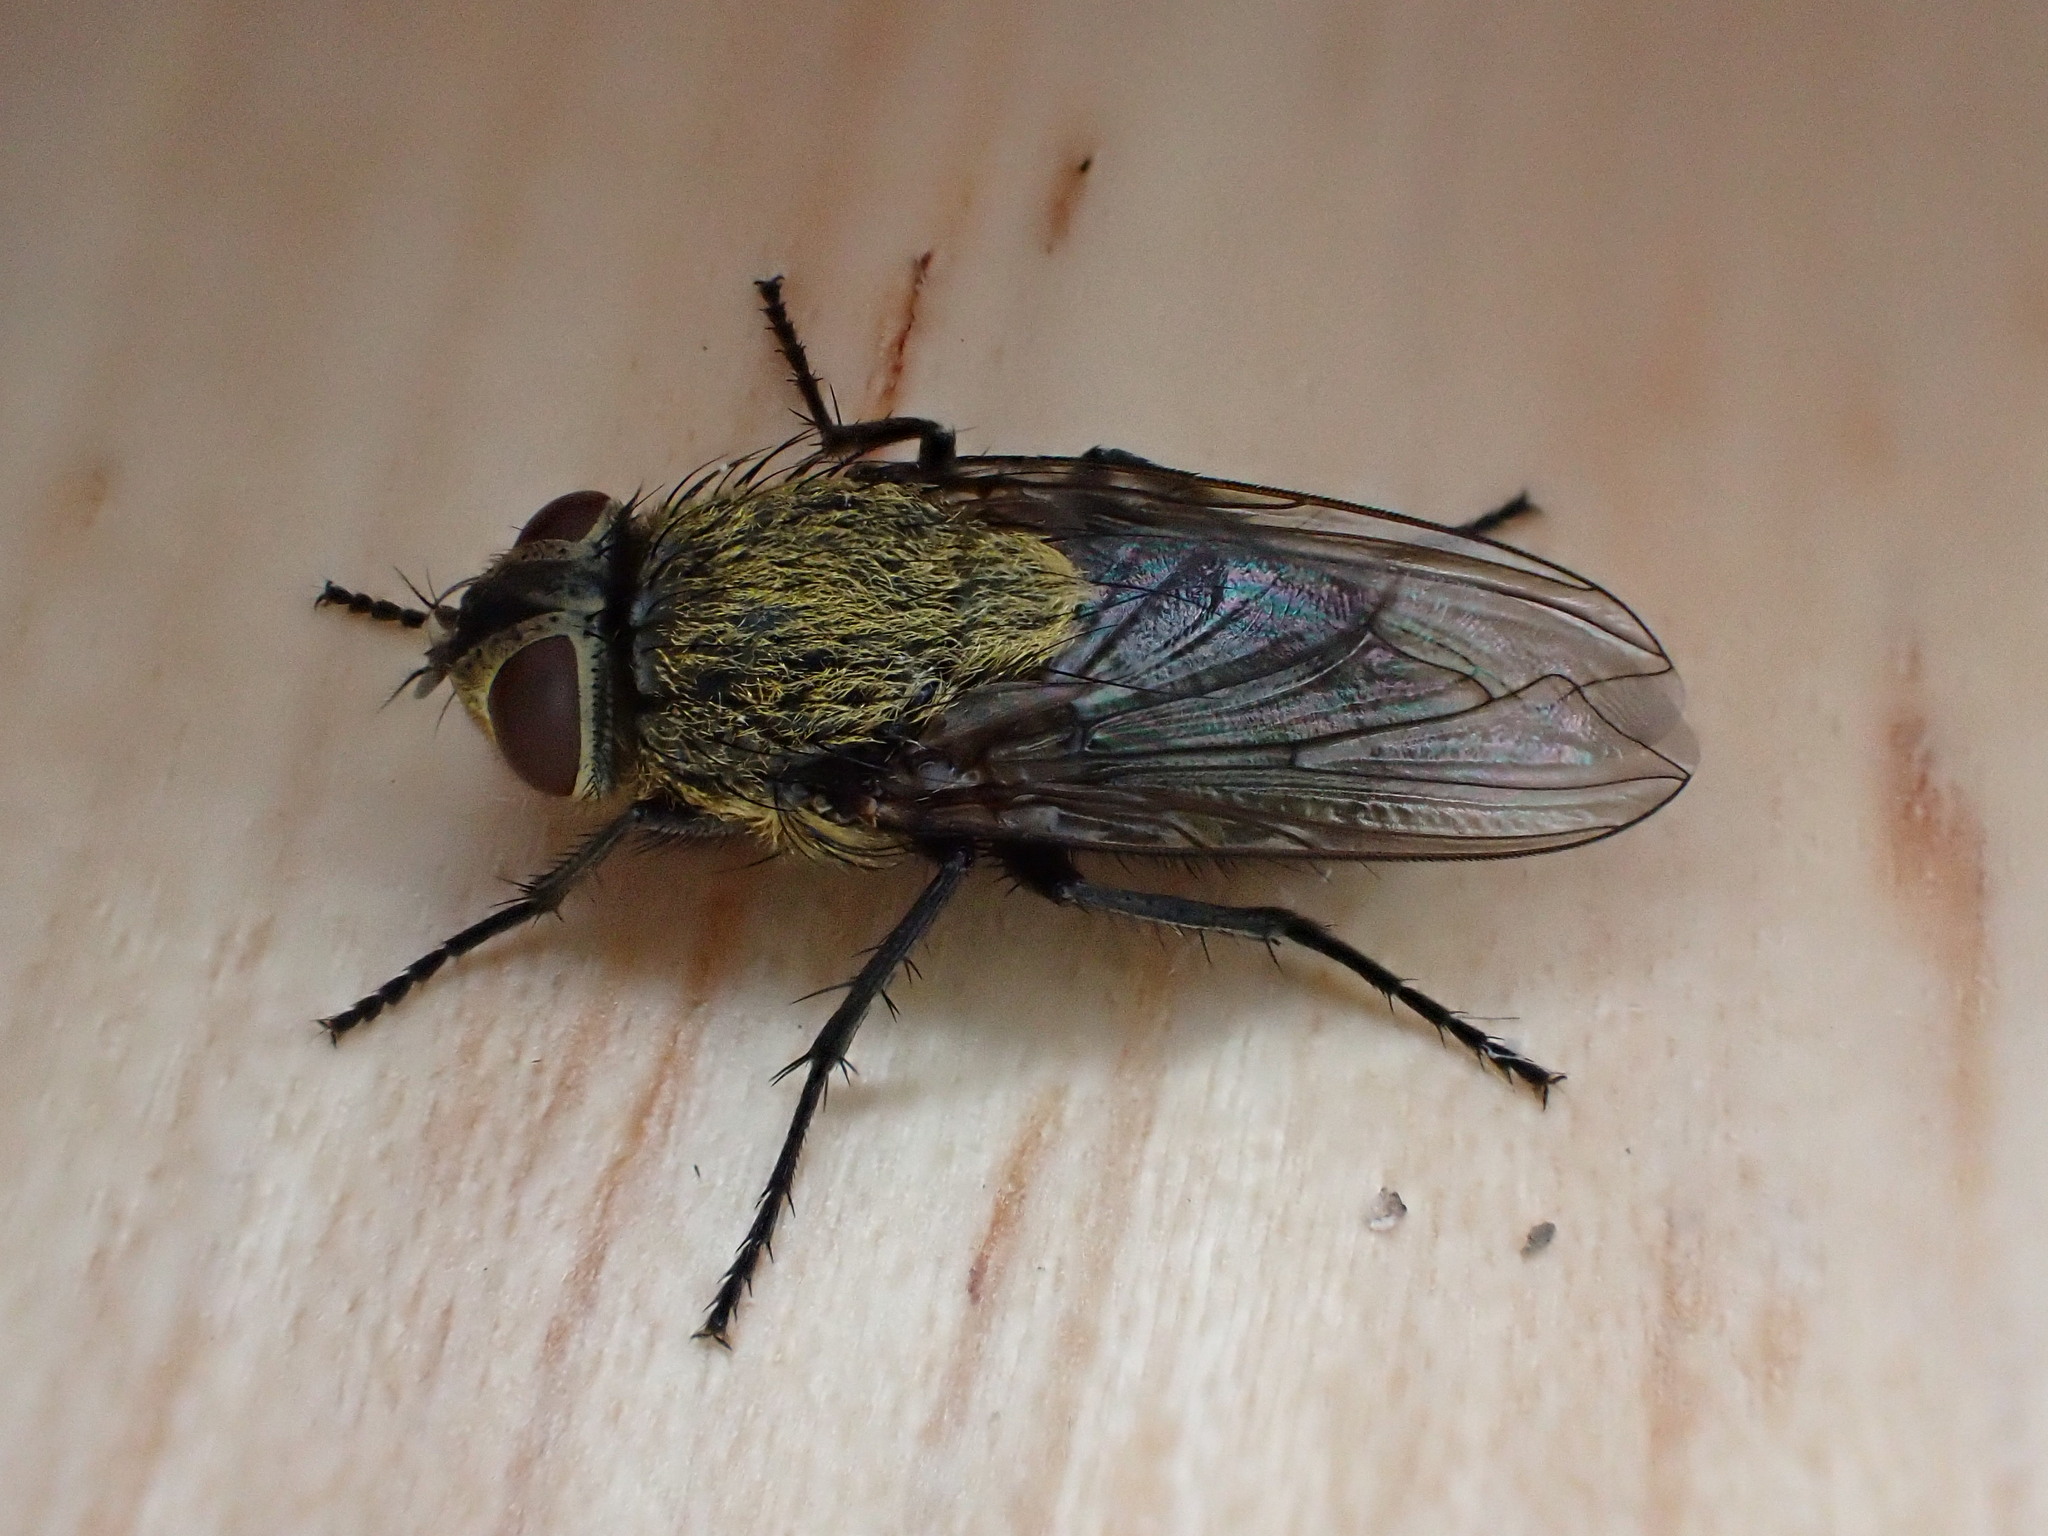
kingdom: Animalia
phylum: Arthropoda
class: Insecta
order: Diptera
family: Polleniidae
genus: Pollenia
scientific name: Pollenia
